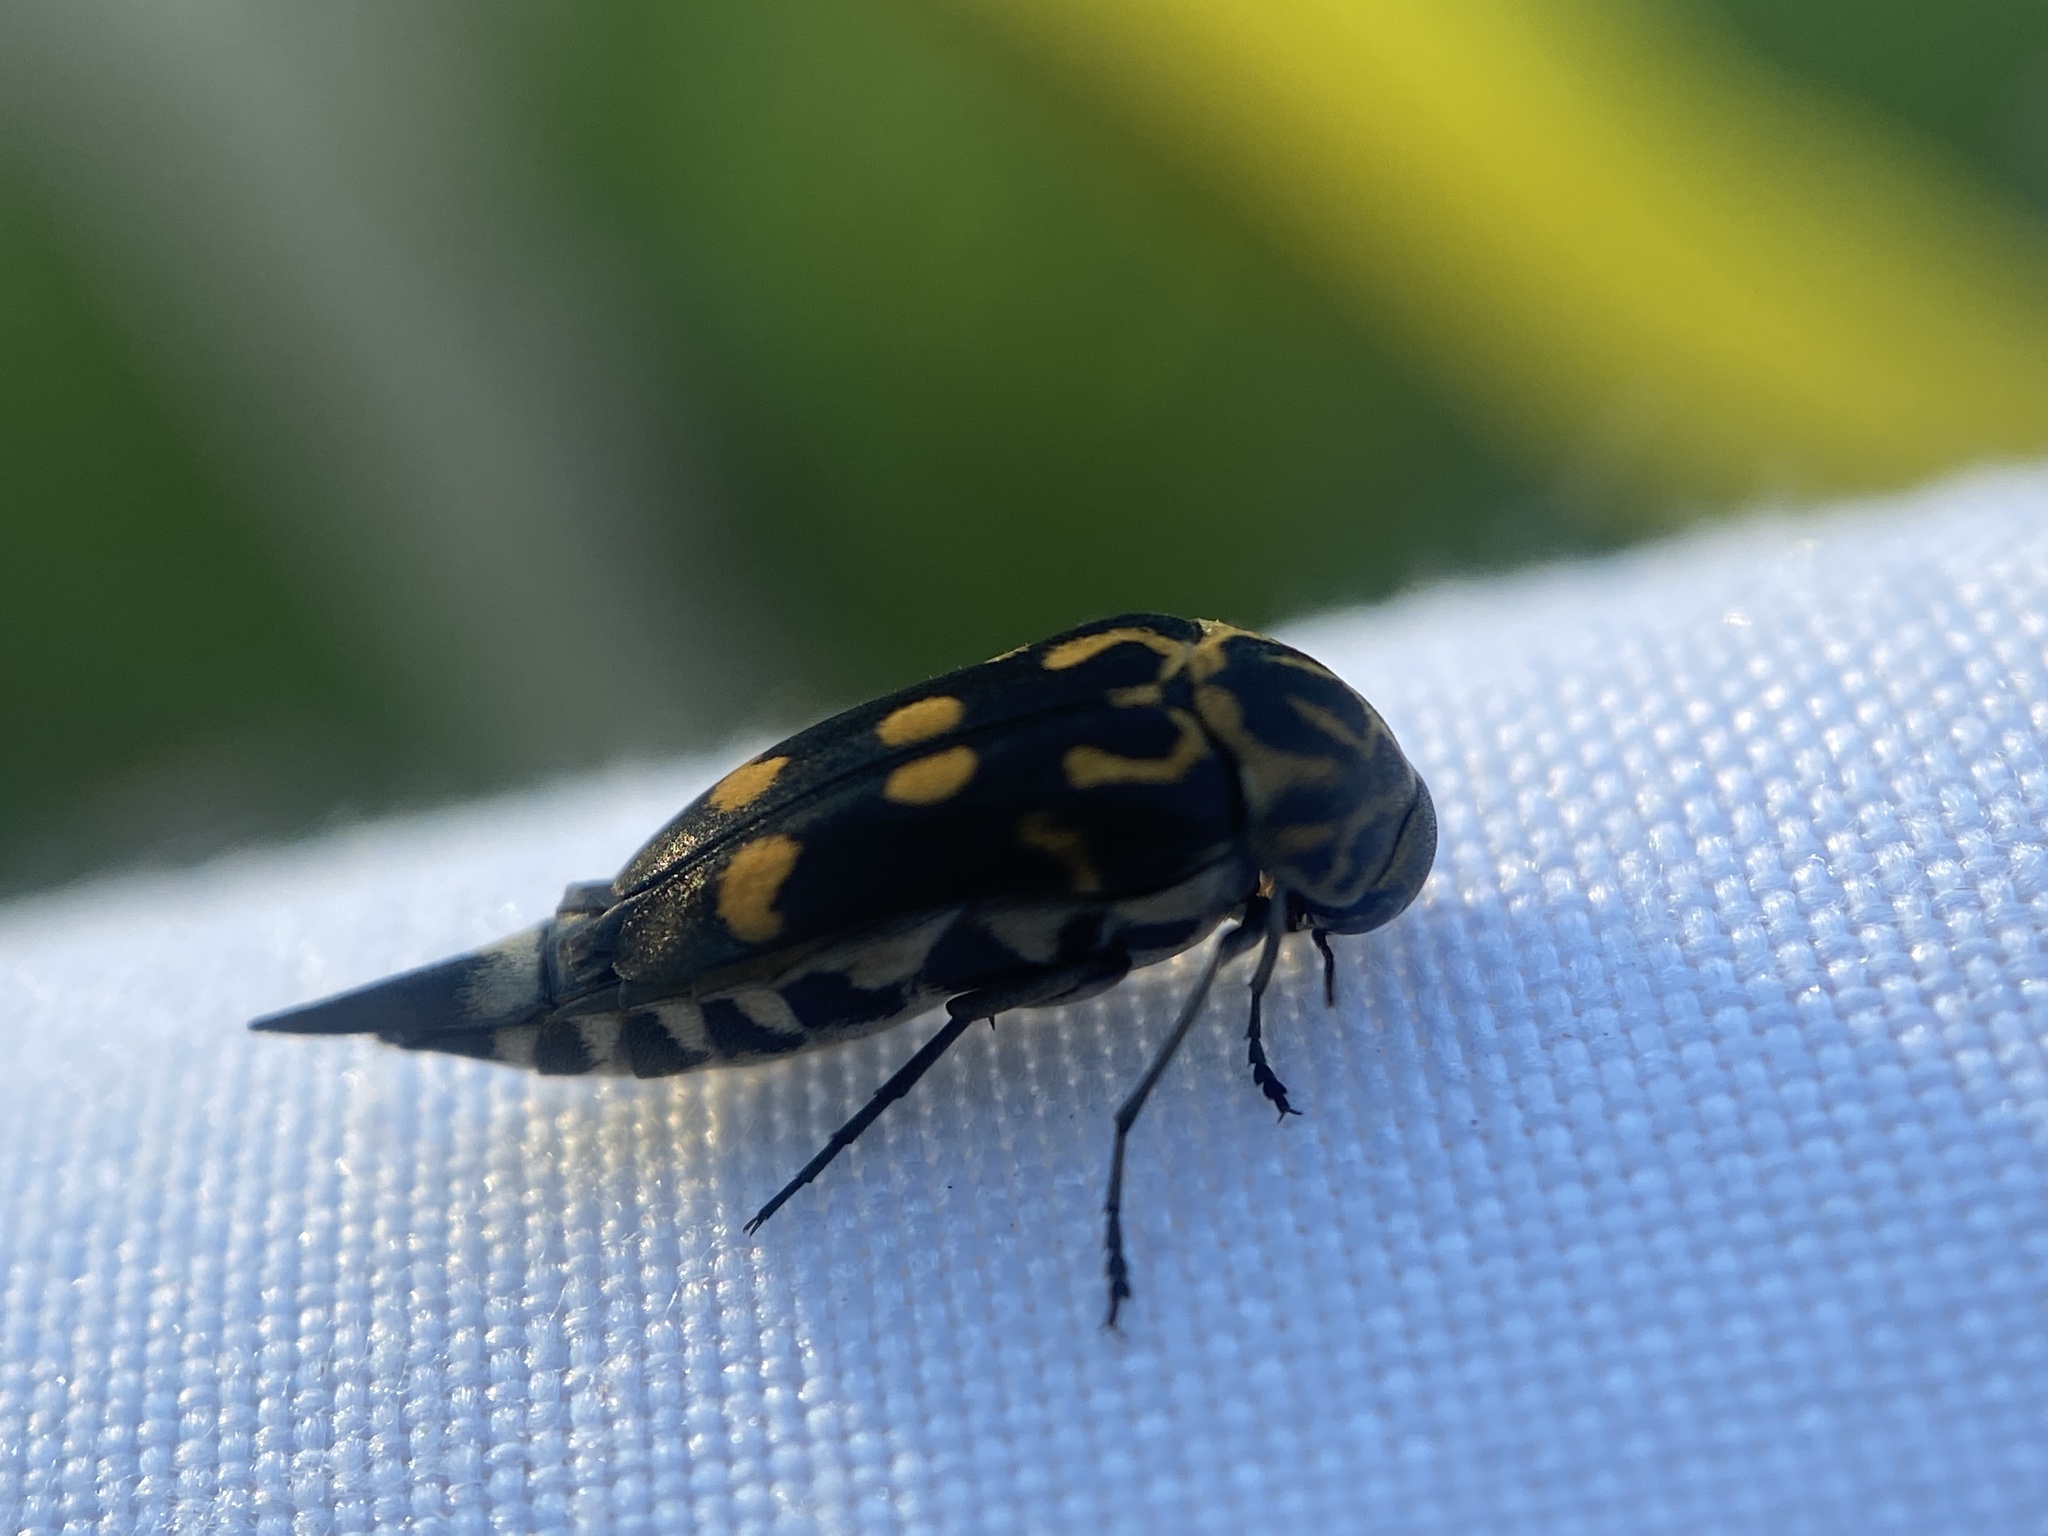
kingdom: Animalia
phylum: Arthropoda
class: Insecta
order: Coleoptera
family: Mordellidae
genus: Hoshihananomia
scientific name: Hoshihananomia octopunctata
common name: Eight-spotted tumbling flower beetle
